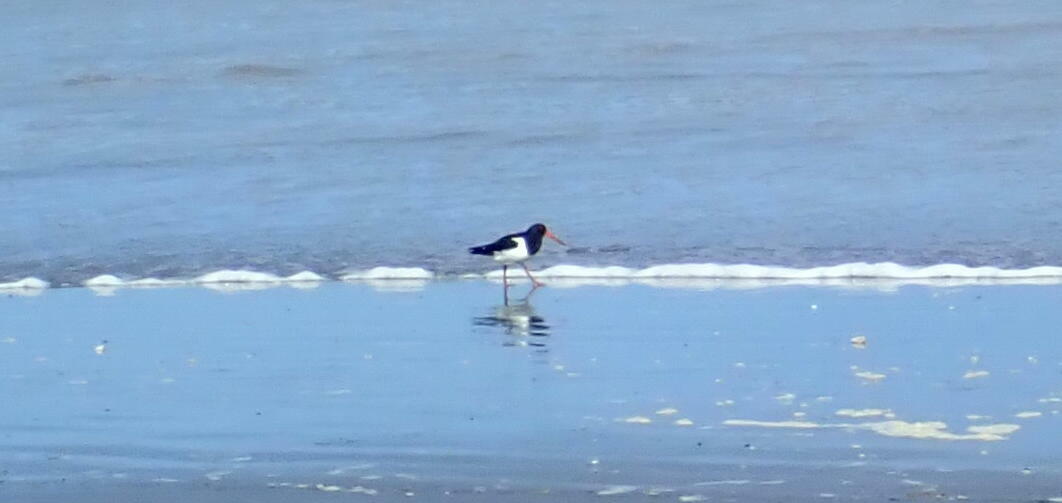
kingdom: Animalia
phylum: Chordata
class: Aves
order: Charadriiformes
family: Haematopodidae
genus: Haematopus
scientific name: Haematopus finschi
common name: South island oystercatcher
